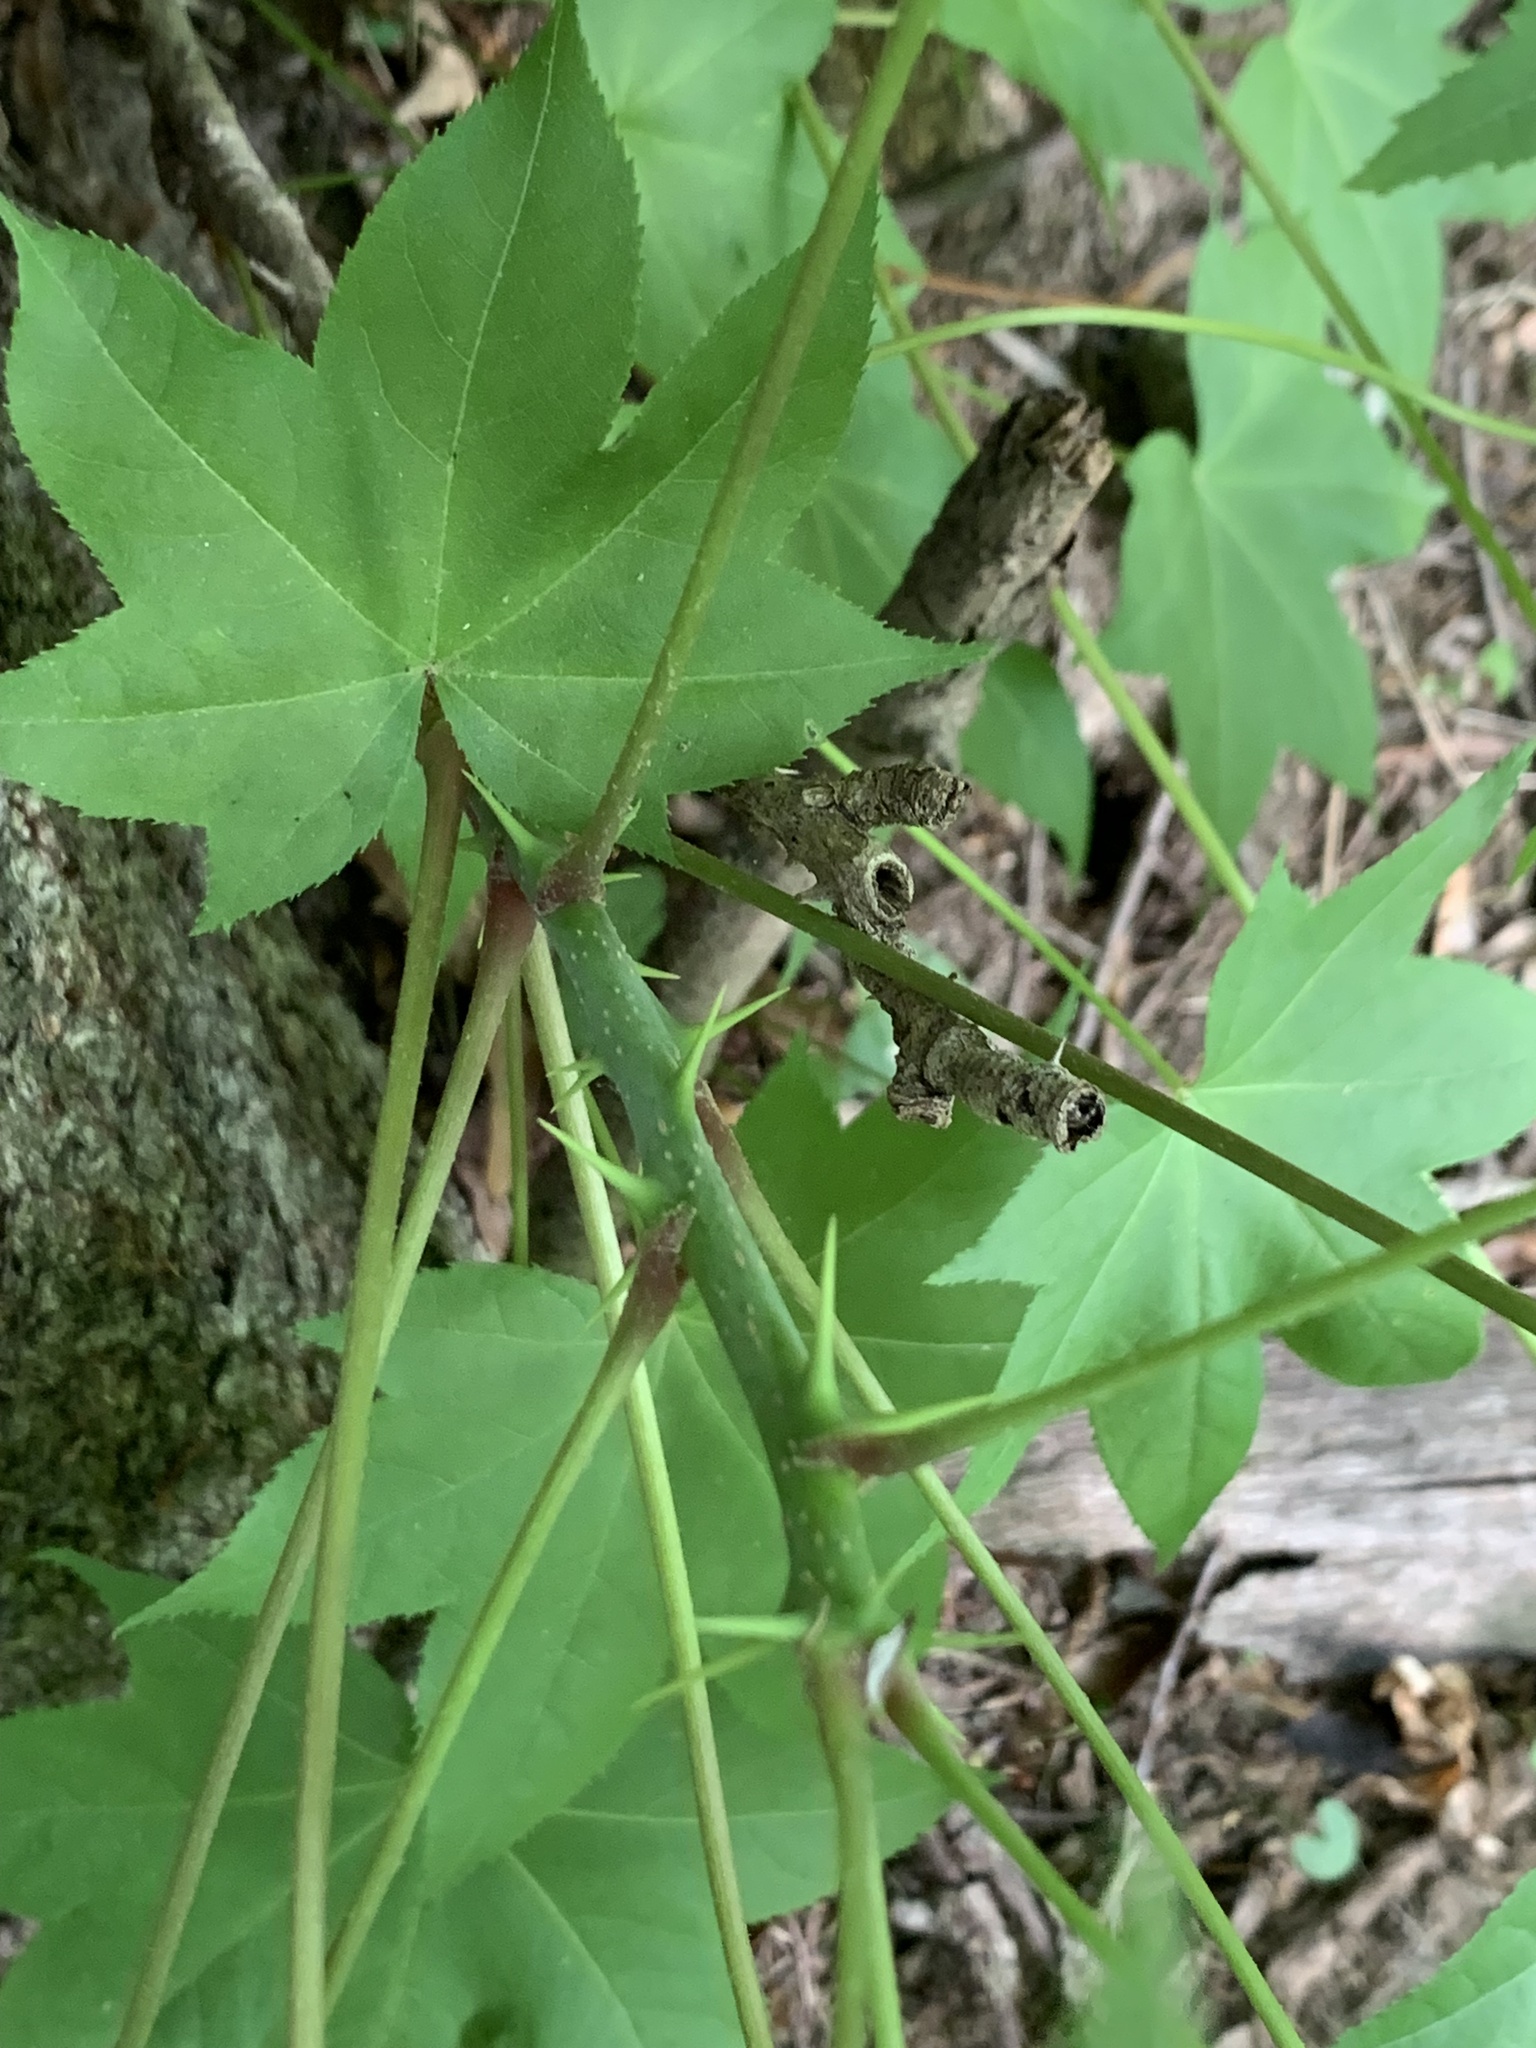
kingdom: Plantae
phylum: Tracheophyta
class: Magnoliopsida
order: Apiales
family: Araliaceae
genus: Kalopanax
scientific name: Kalopanax septemlobus
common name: Castor aralia
